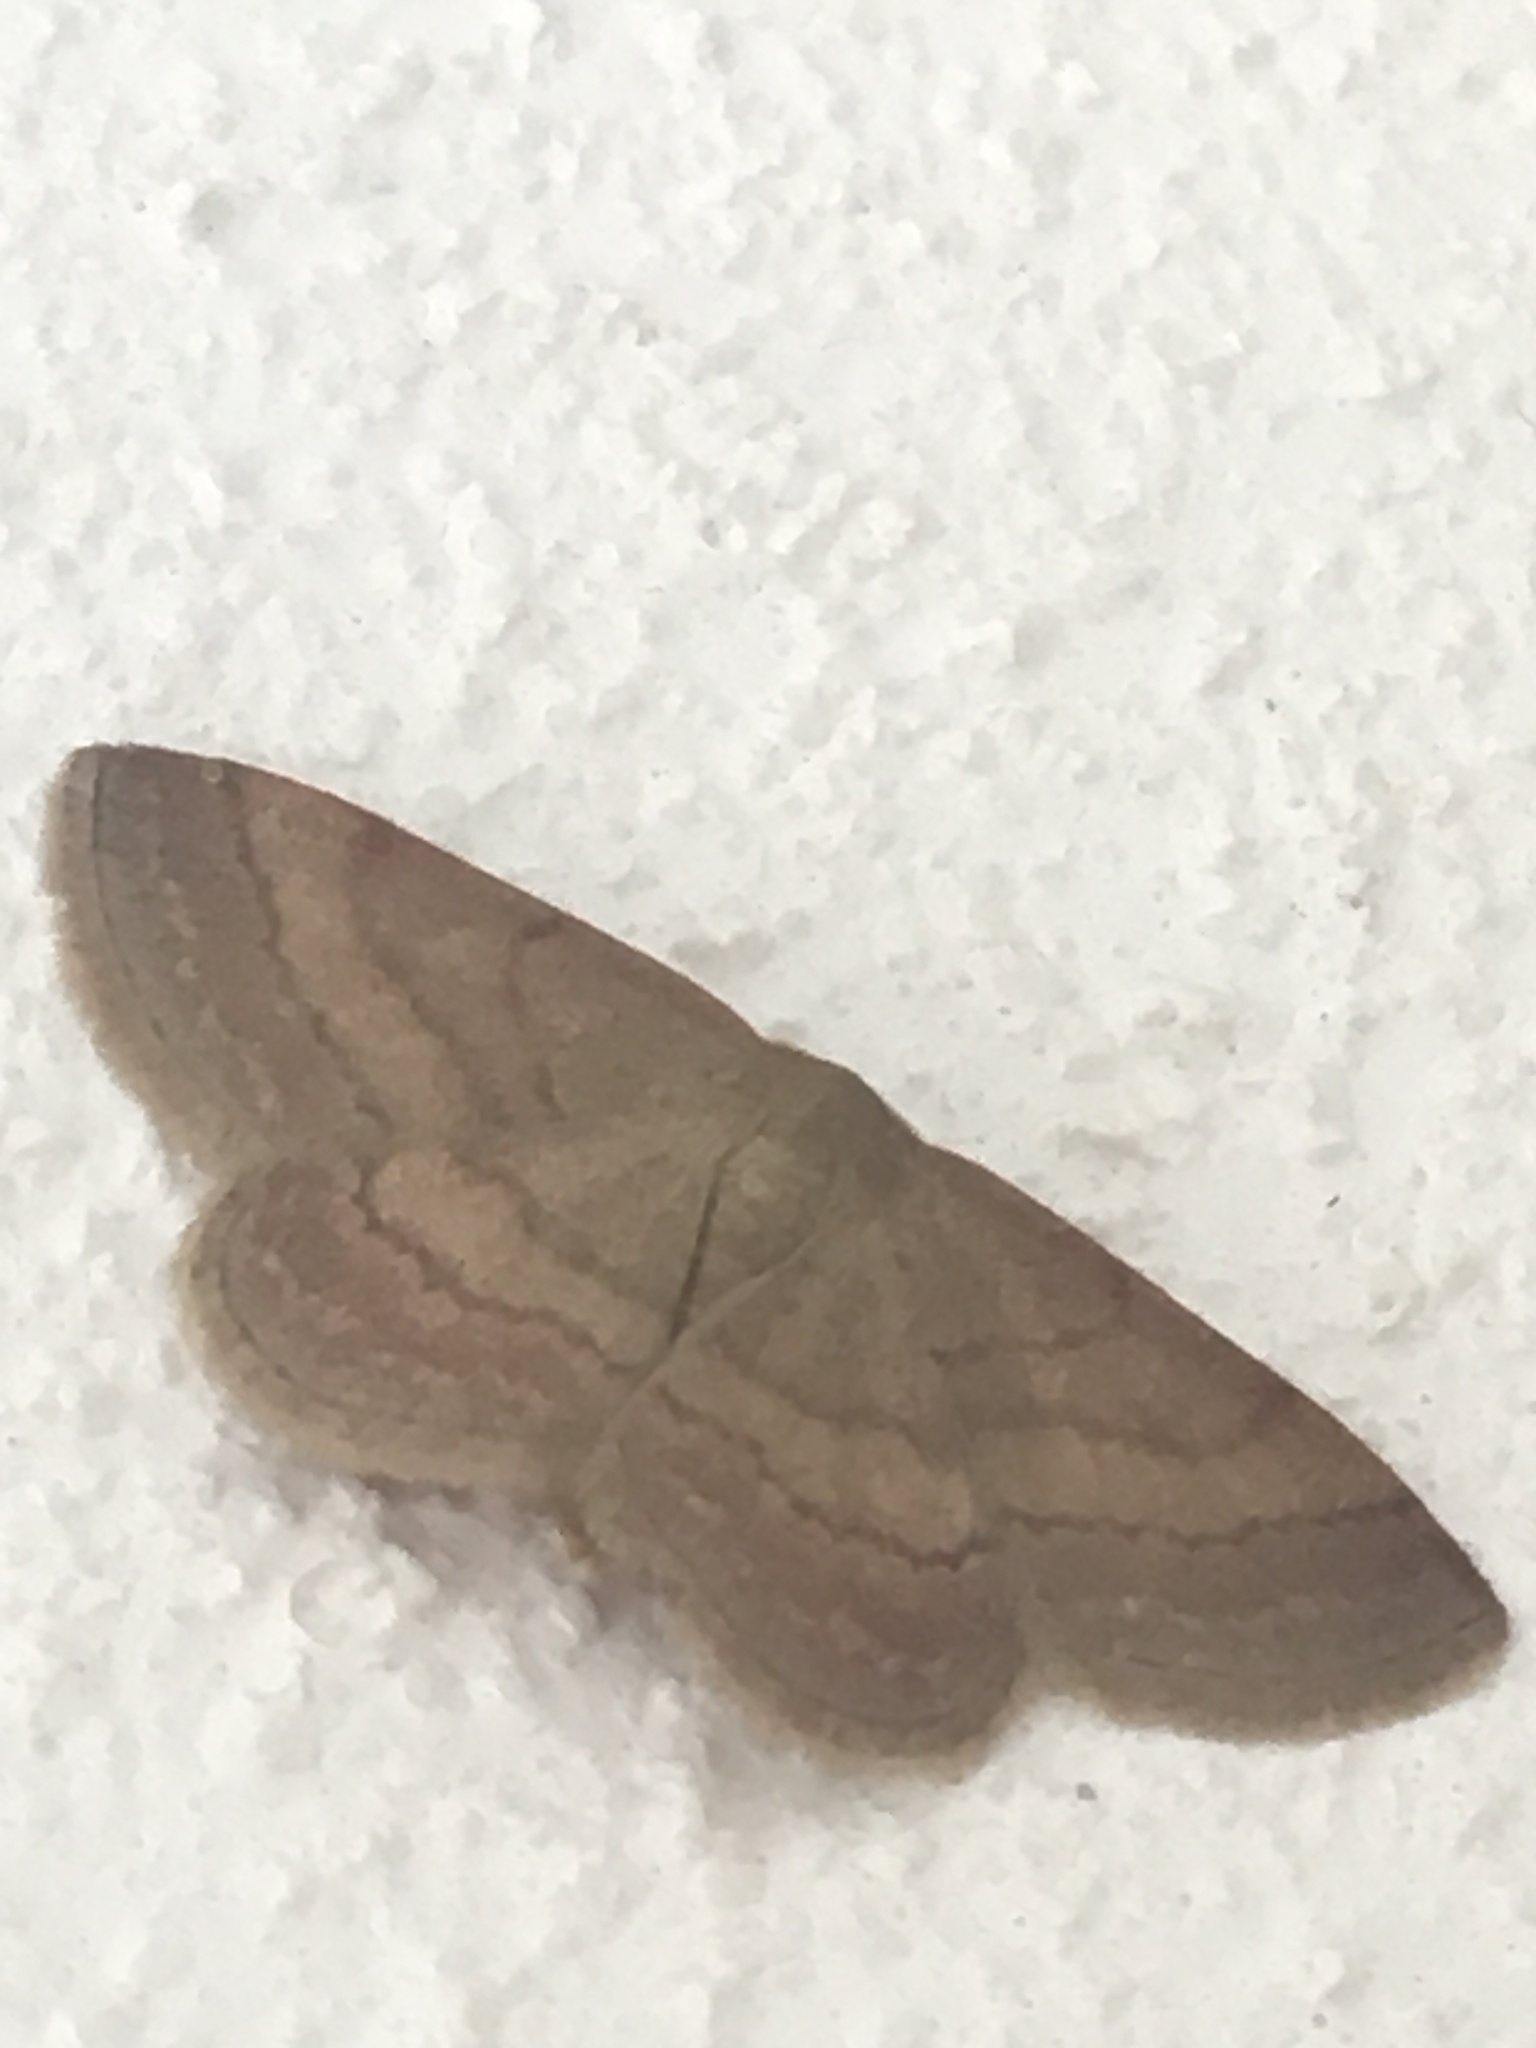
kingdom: Animalia
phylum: Arthropoda
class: Insecta
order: Lepidoptera
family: Geometridae
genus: Scopula
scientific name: Scopula rubiginata
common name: Tawny wave
